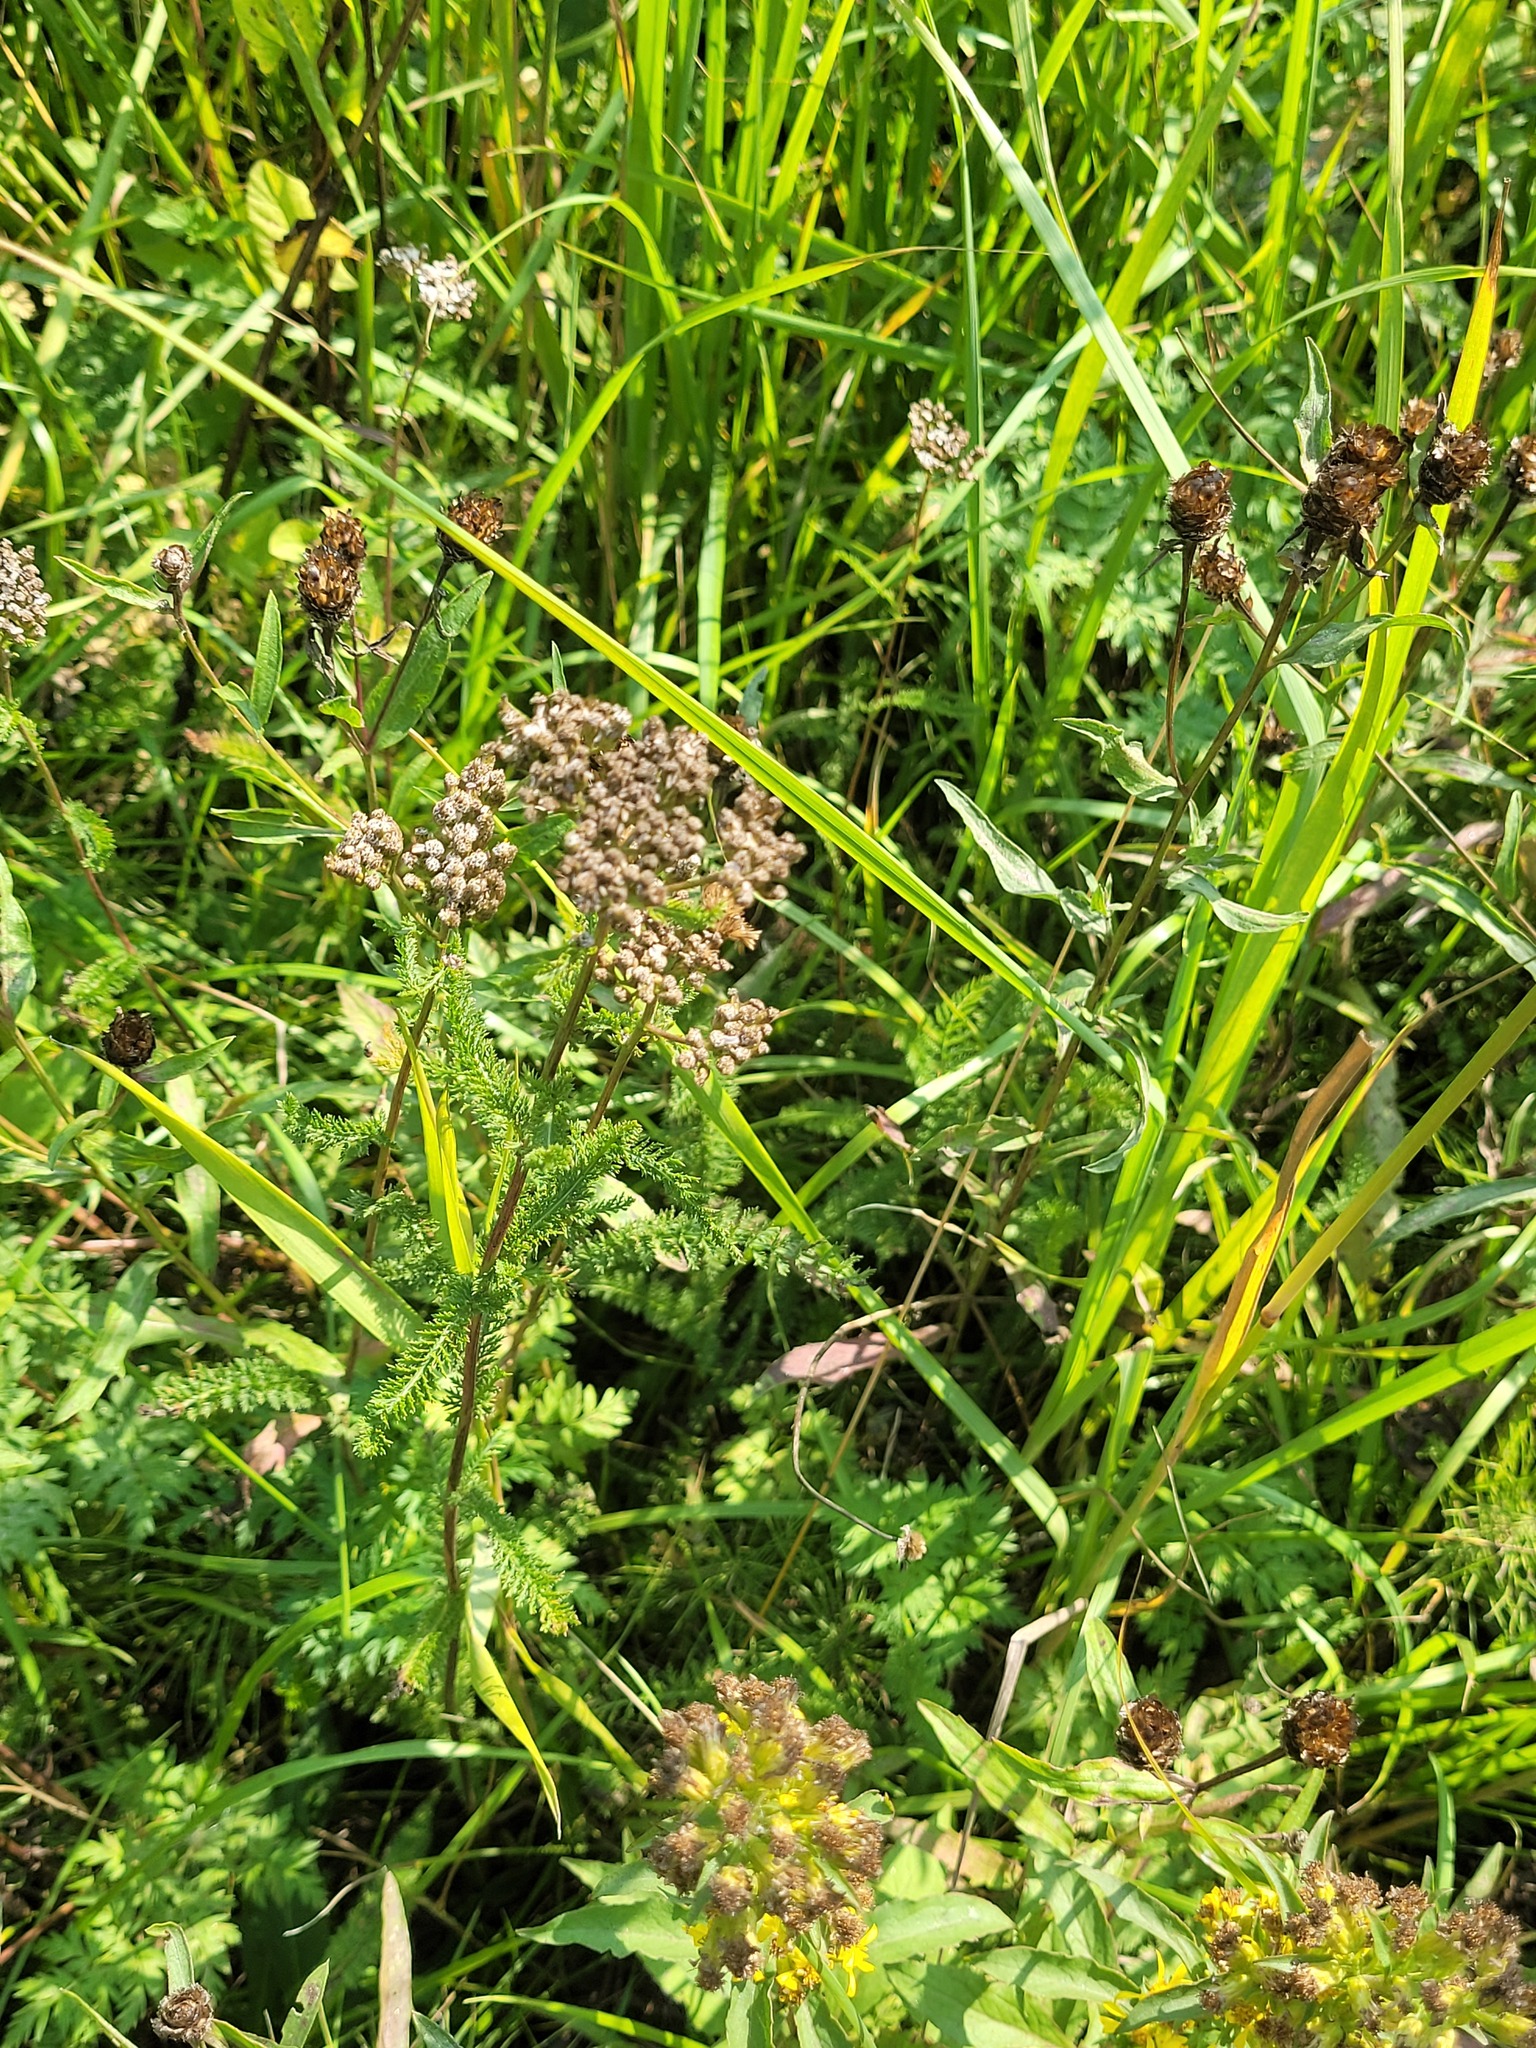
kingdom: Plantae
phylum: Tracheophyta
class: Magnoliopsida
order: Asterales
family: Asteraceae
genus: Achillea
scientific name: Achillea millefolium
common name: Yarrow
